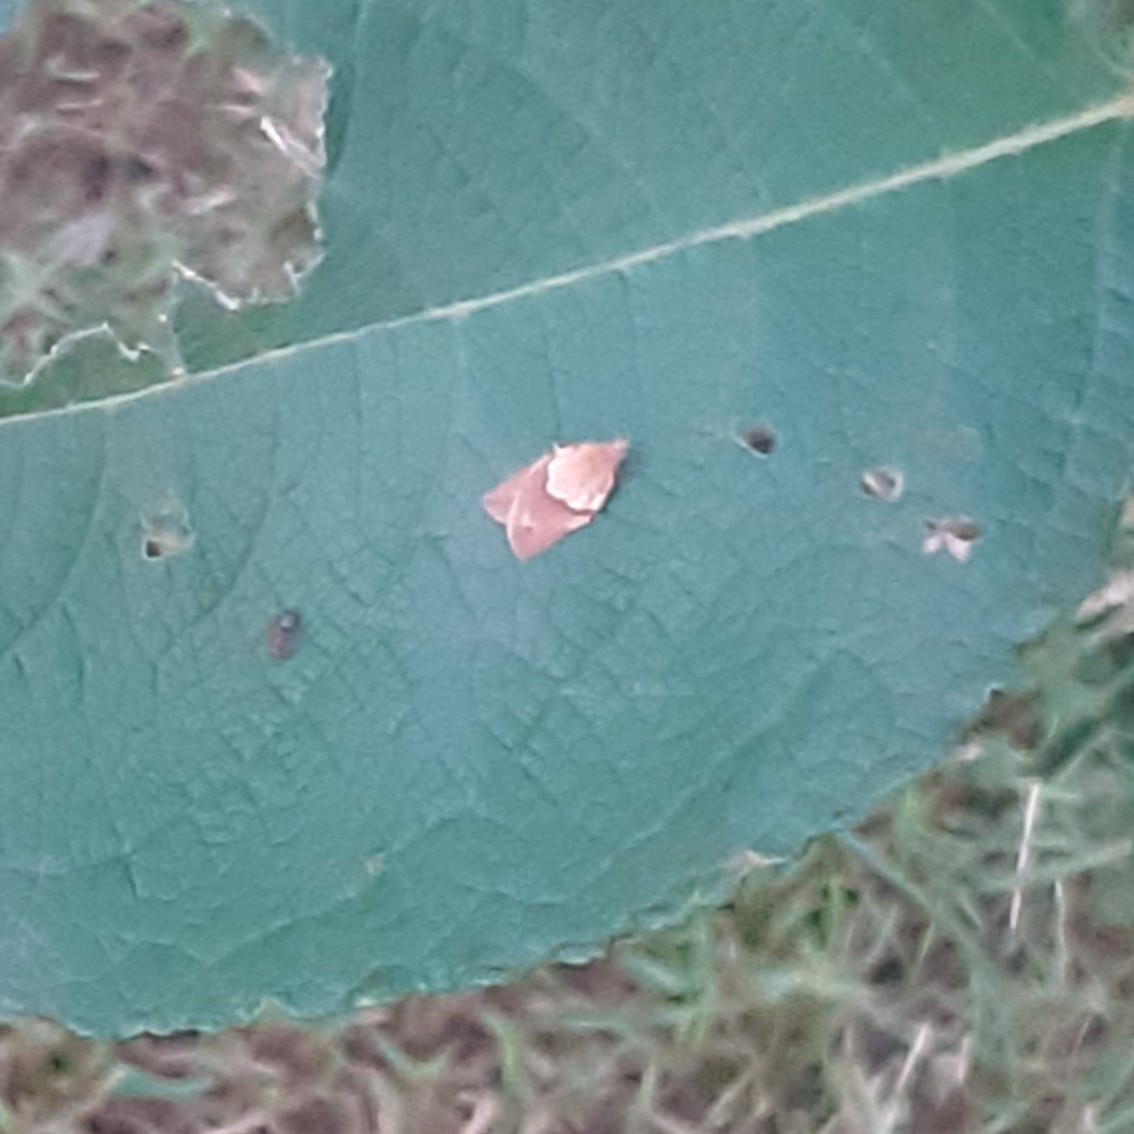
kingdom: Animalia
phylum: Arthropoda
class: Insecta
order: Lepidoptera
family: Tortricidae
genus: Epiphyas
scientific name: Epiphyas postvittana
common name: Light brown apple moth
